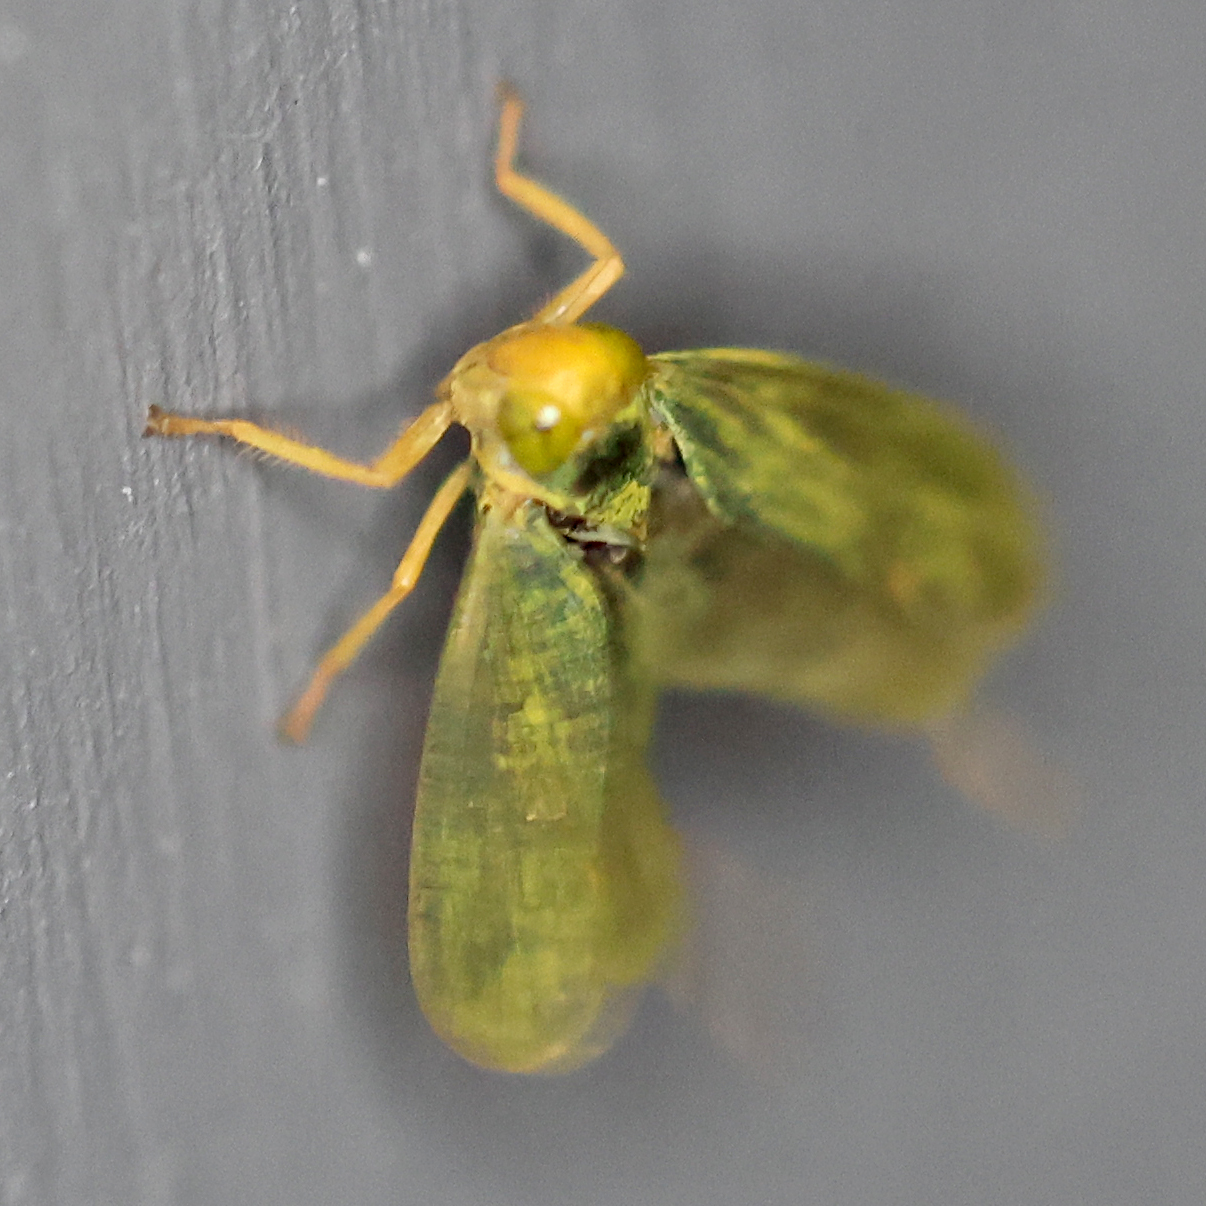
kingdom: Animalia
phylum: Arthropoda
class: Insecta
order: Hemiptera
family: Cicadellidae
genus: Jikradia
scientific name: Jikradia olitoria
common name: Coppery leafhopper
